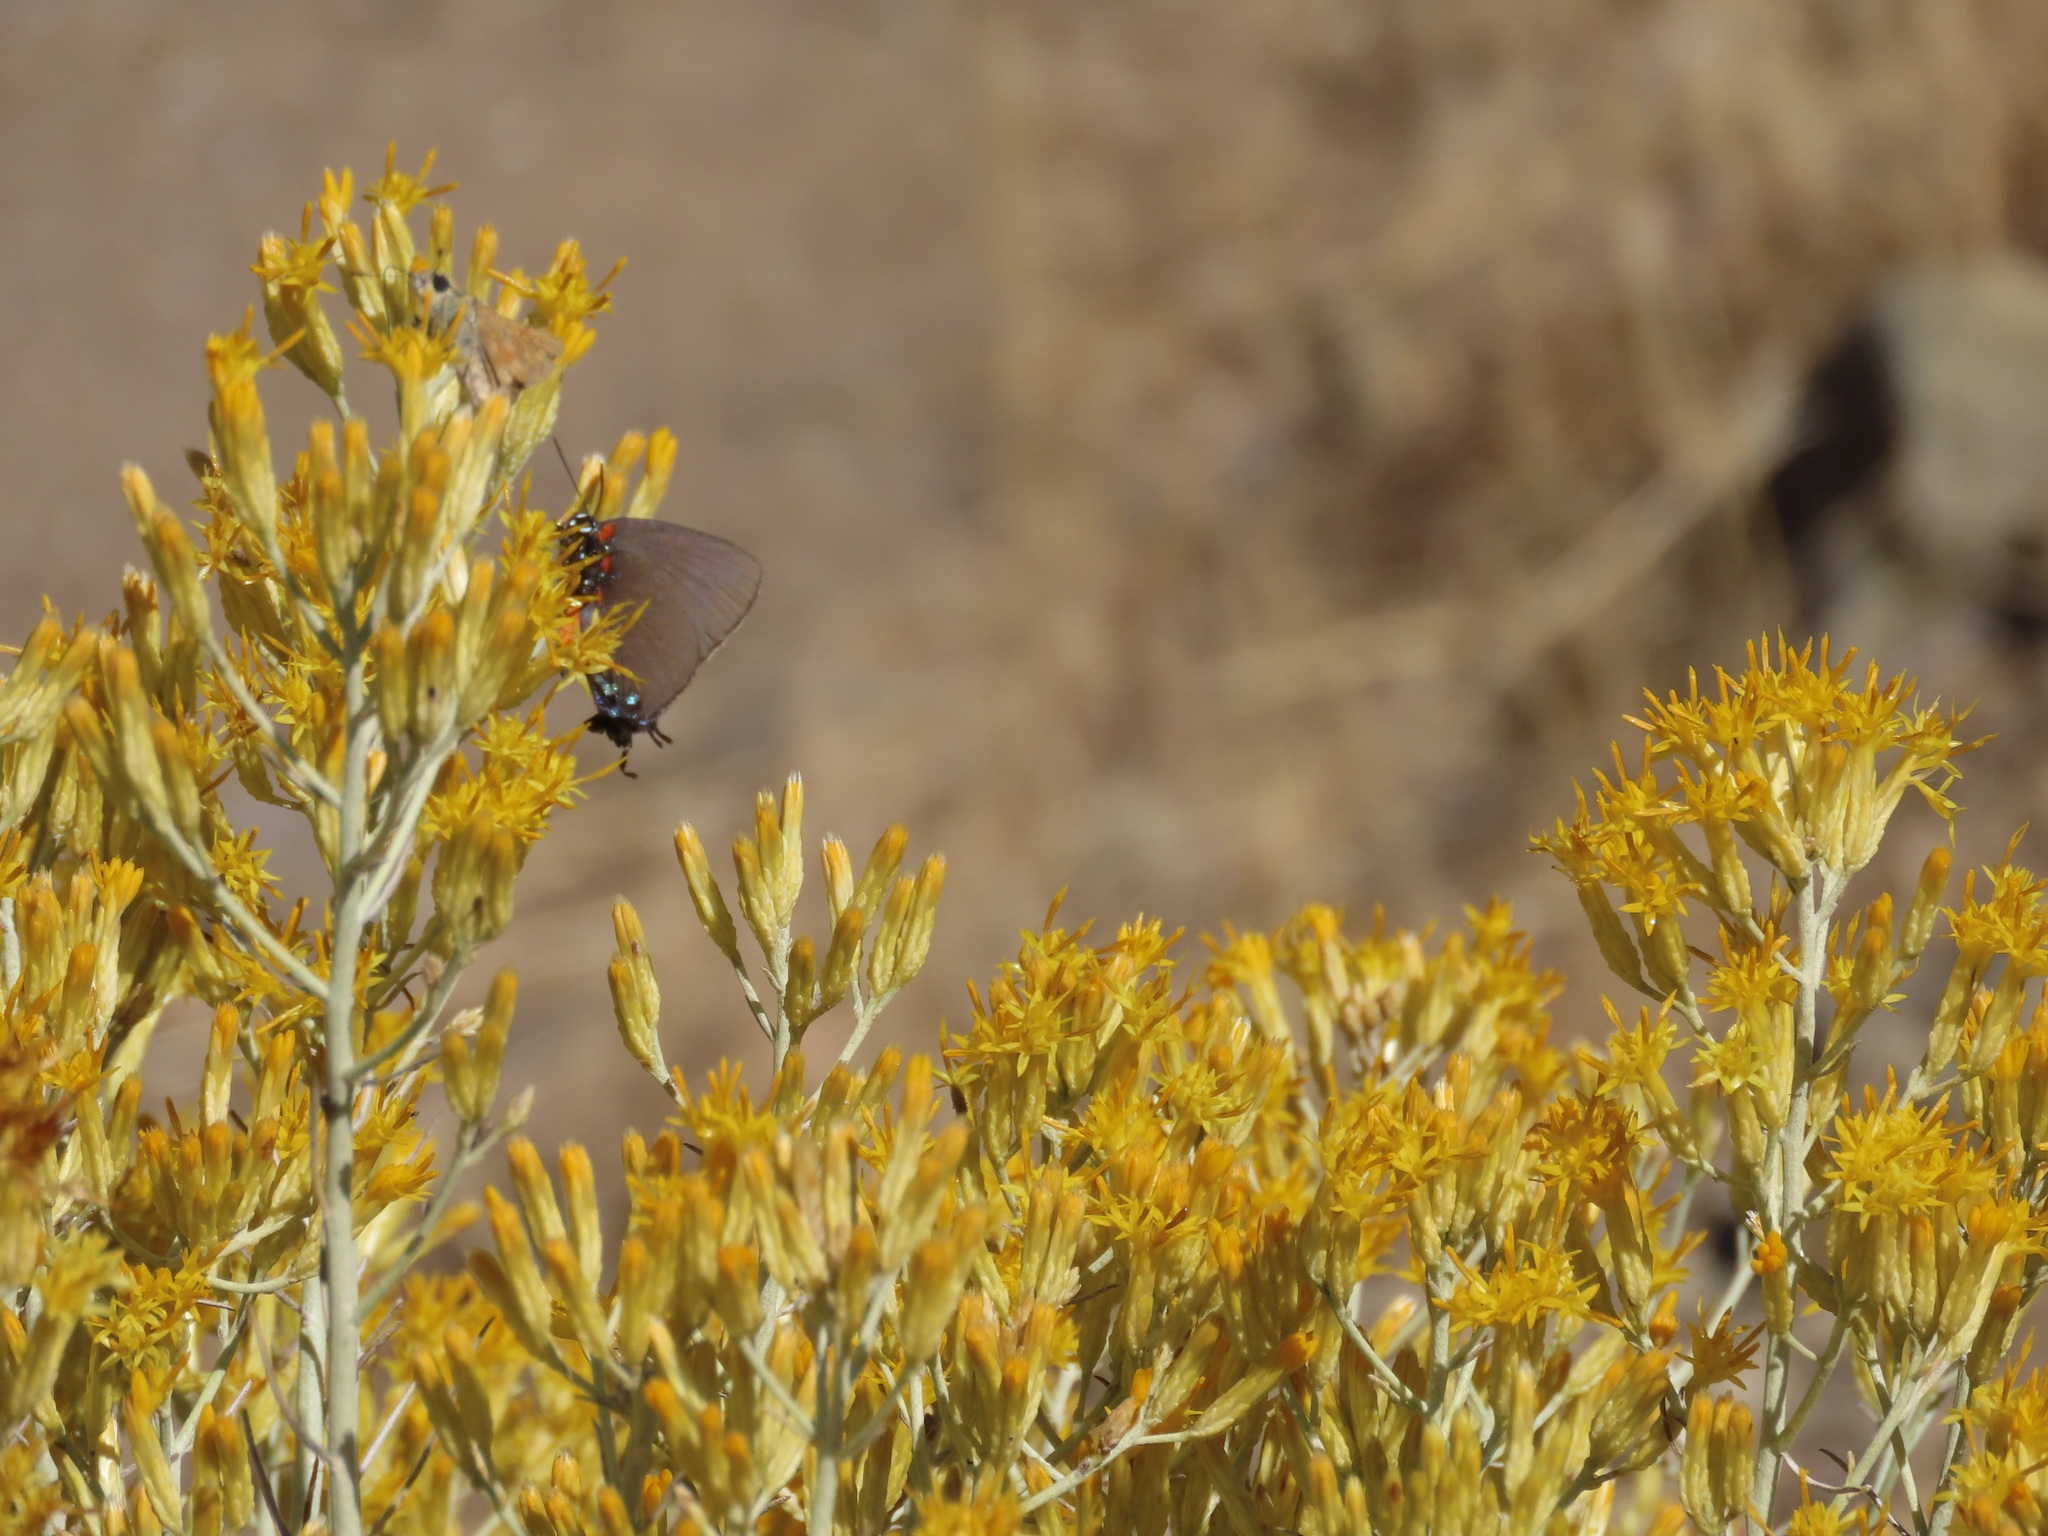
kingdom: Animalia
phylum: Arthropoda
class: Insecta
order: Lepidoptera
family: Lycaenidae
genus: Atlides
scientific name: Atlides halesus
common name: Great purple hairstreak
